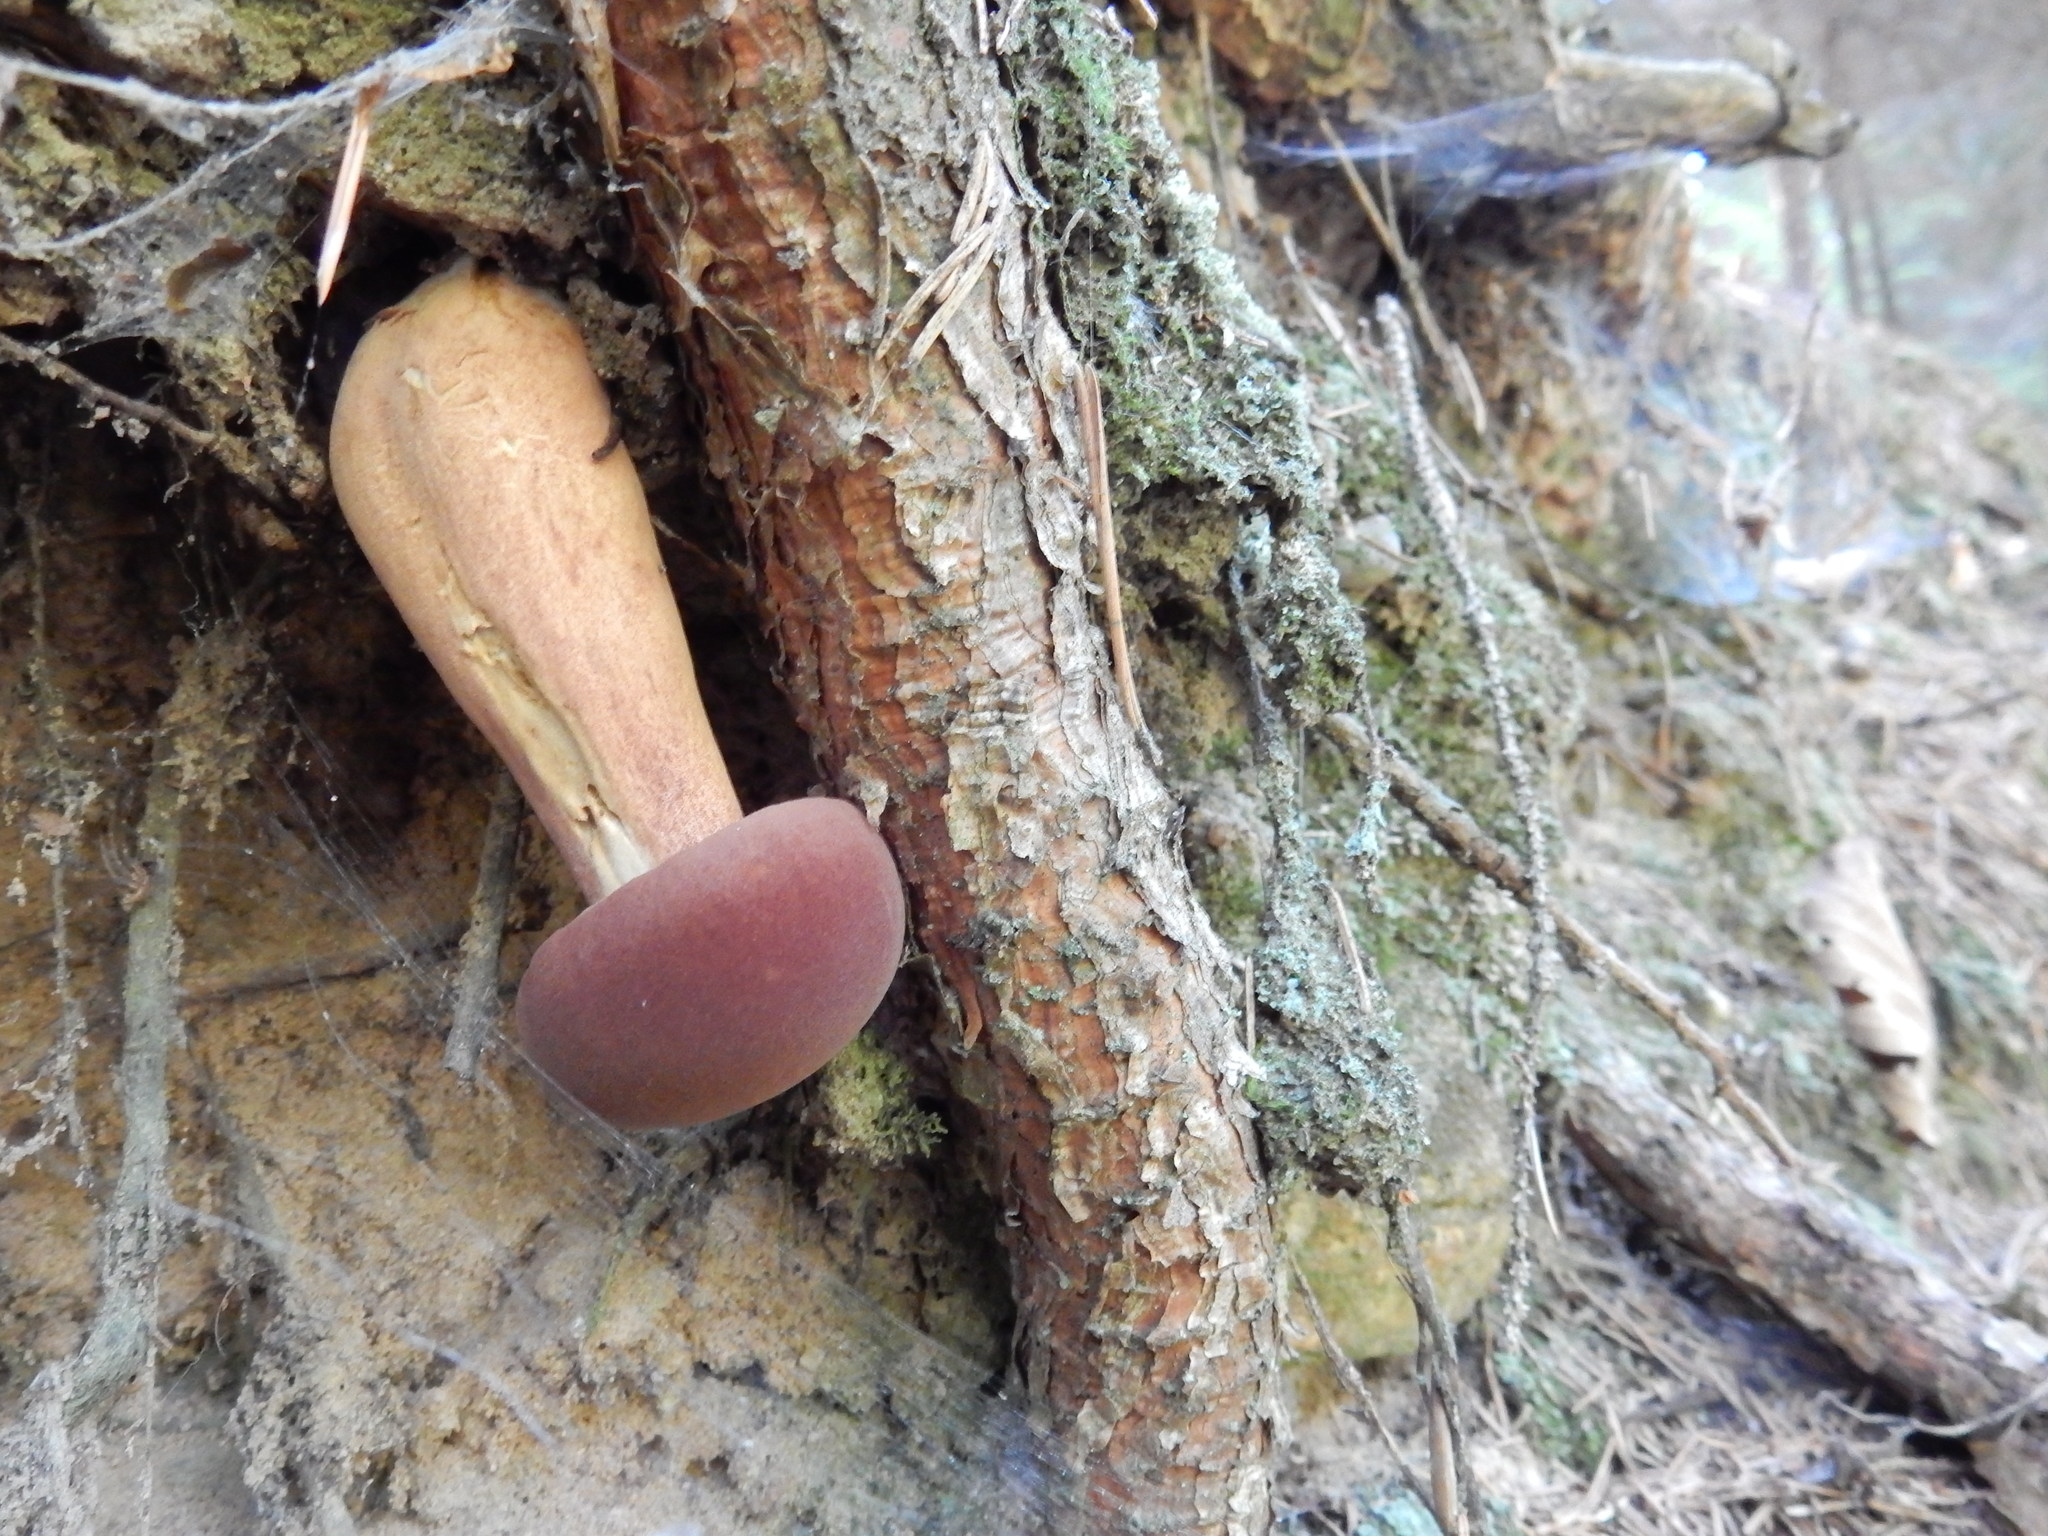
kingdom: Fungi
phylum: Basidiomycota
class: Agaricomycetes
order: Boletales
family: Boletaceae
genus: Imleria
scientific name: Imleria badia
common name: Bay bolete
